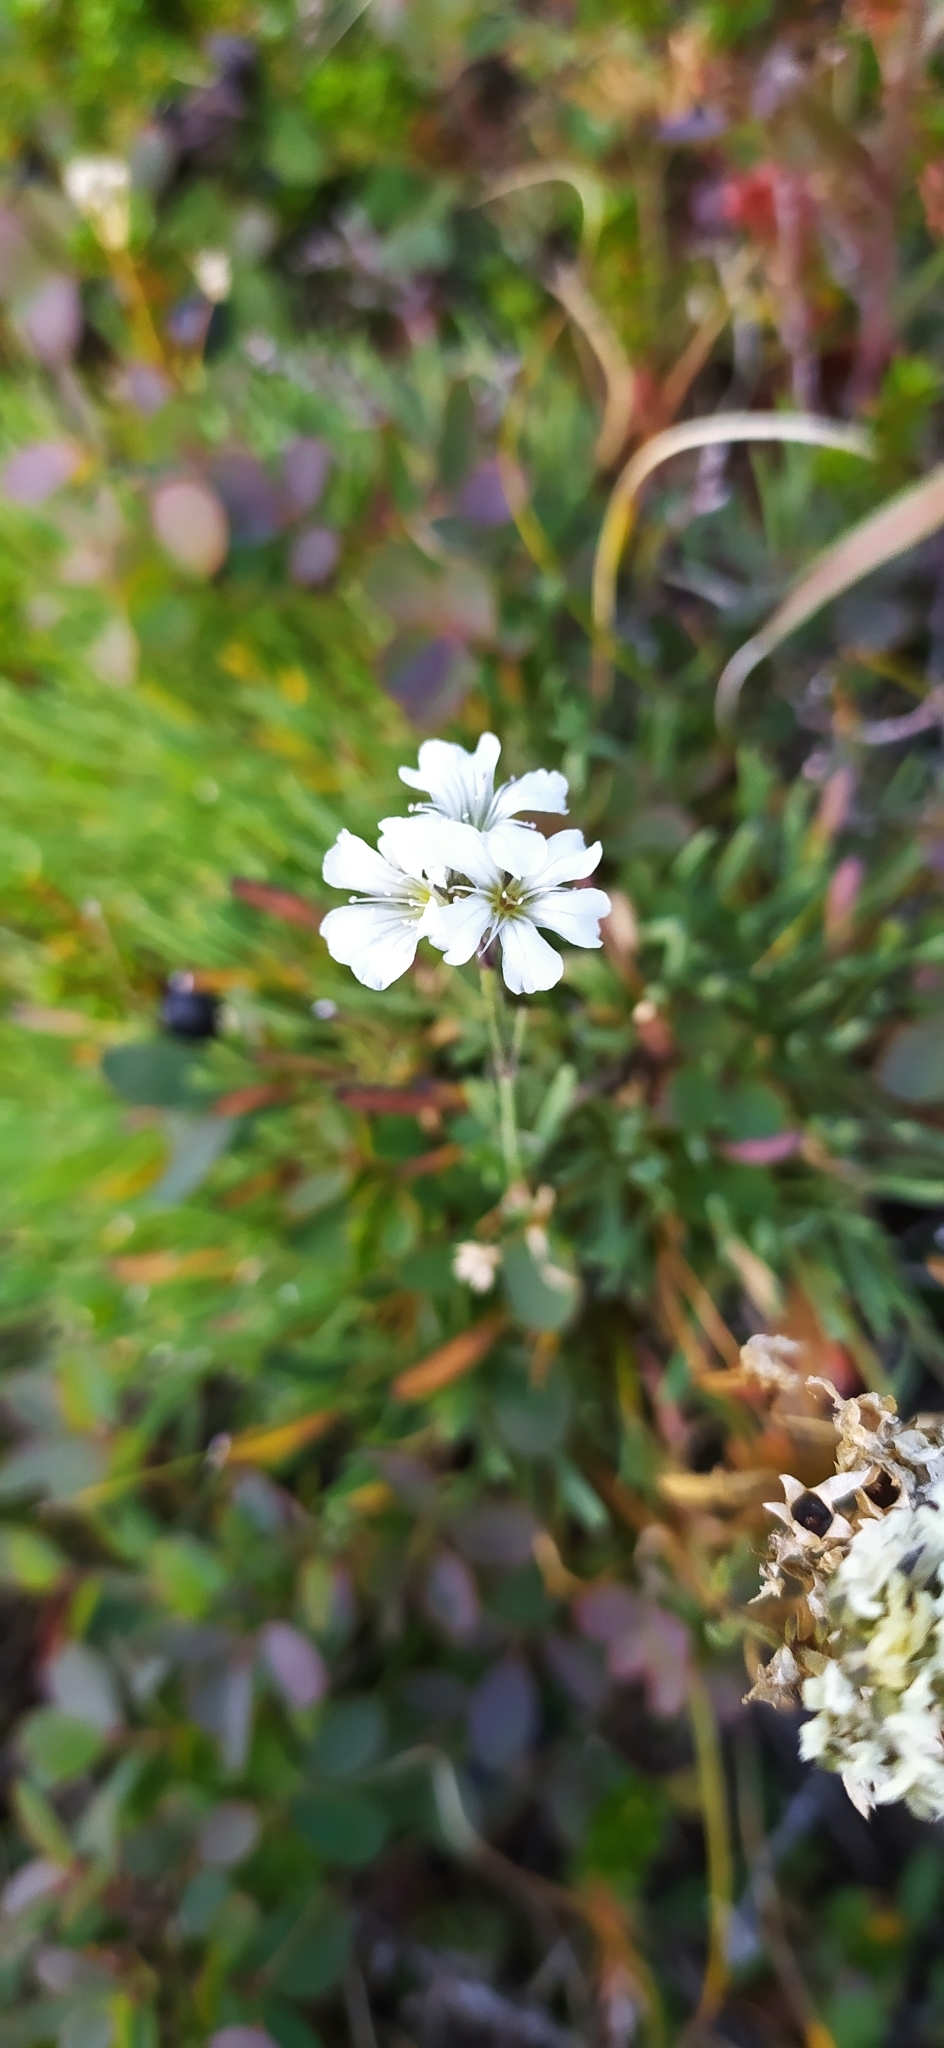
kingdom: Plantae
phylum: Tracheophyta
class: Magnoliopsida
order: Caryophyllales
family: Caryophyllaceae
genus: Gypsophila
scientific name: Gypsophila uralensis
